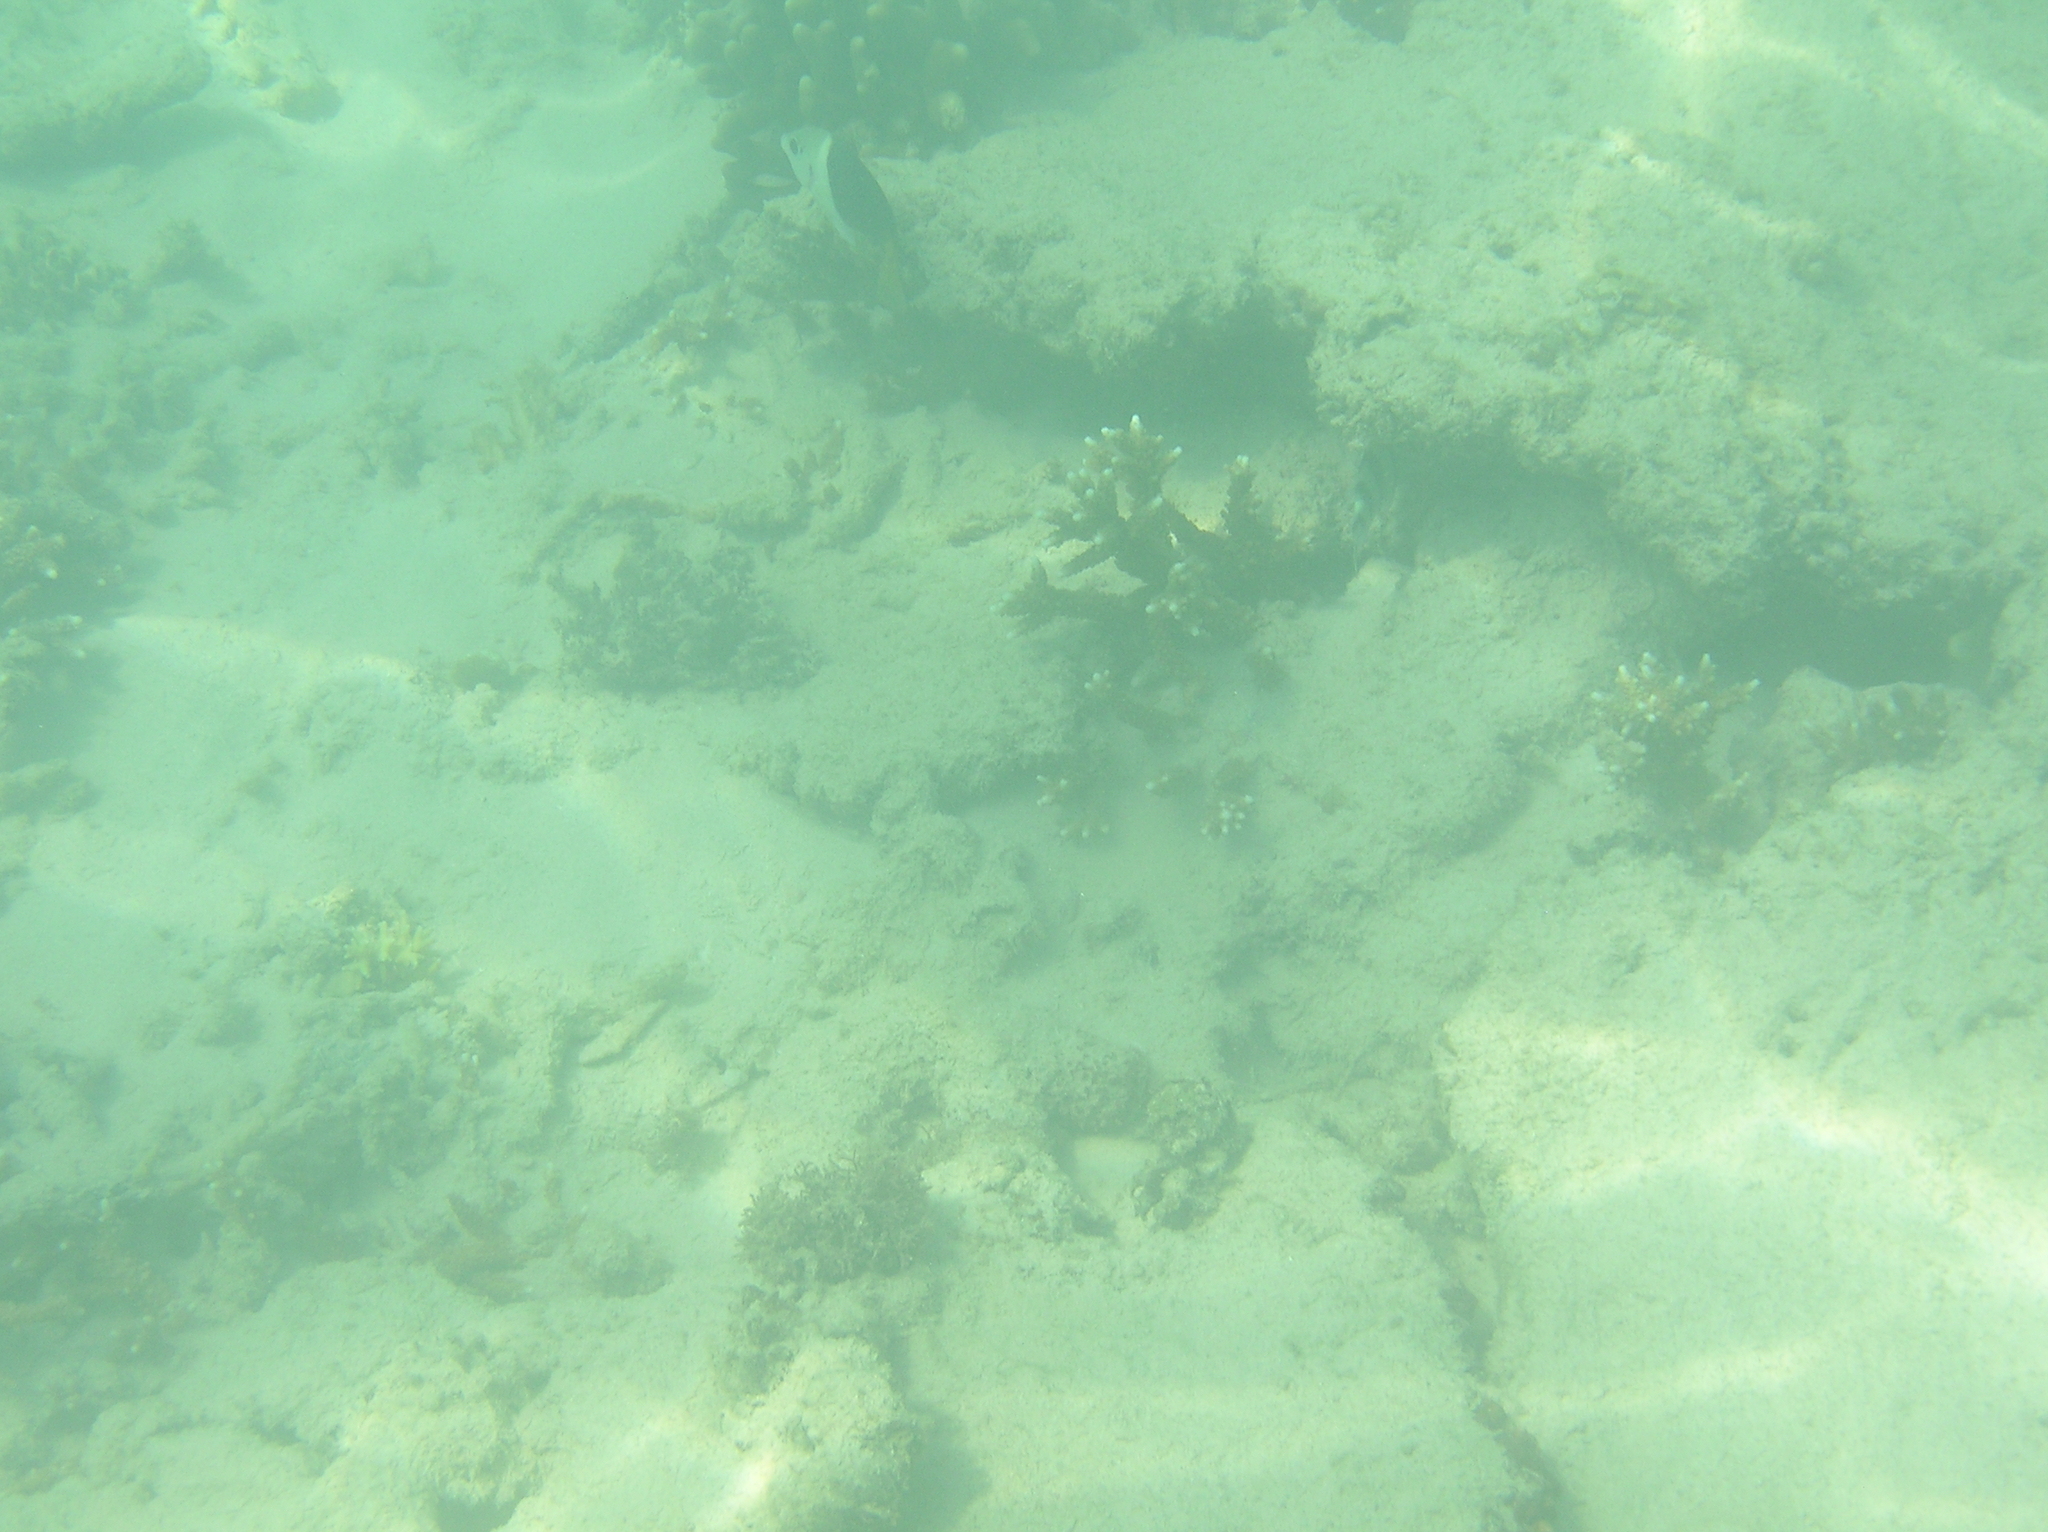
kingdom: Animalia
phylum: Chordata
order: Perciformes
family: Labridae
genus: Hemigymnus
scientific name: Hemigymnus melapterus
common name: Blackeye thicklip
